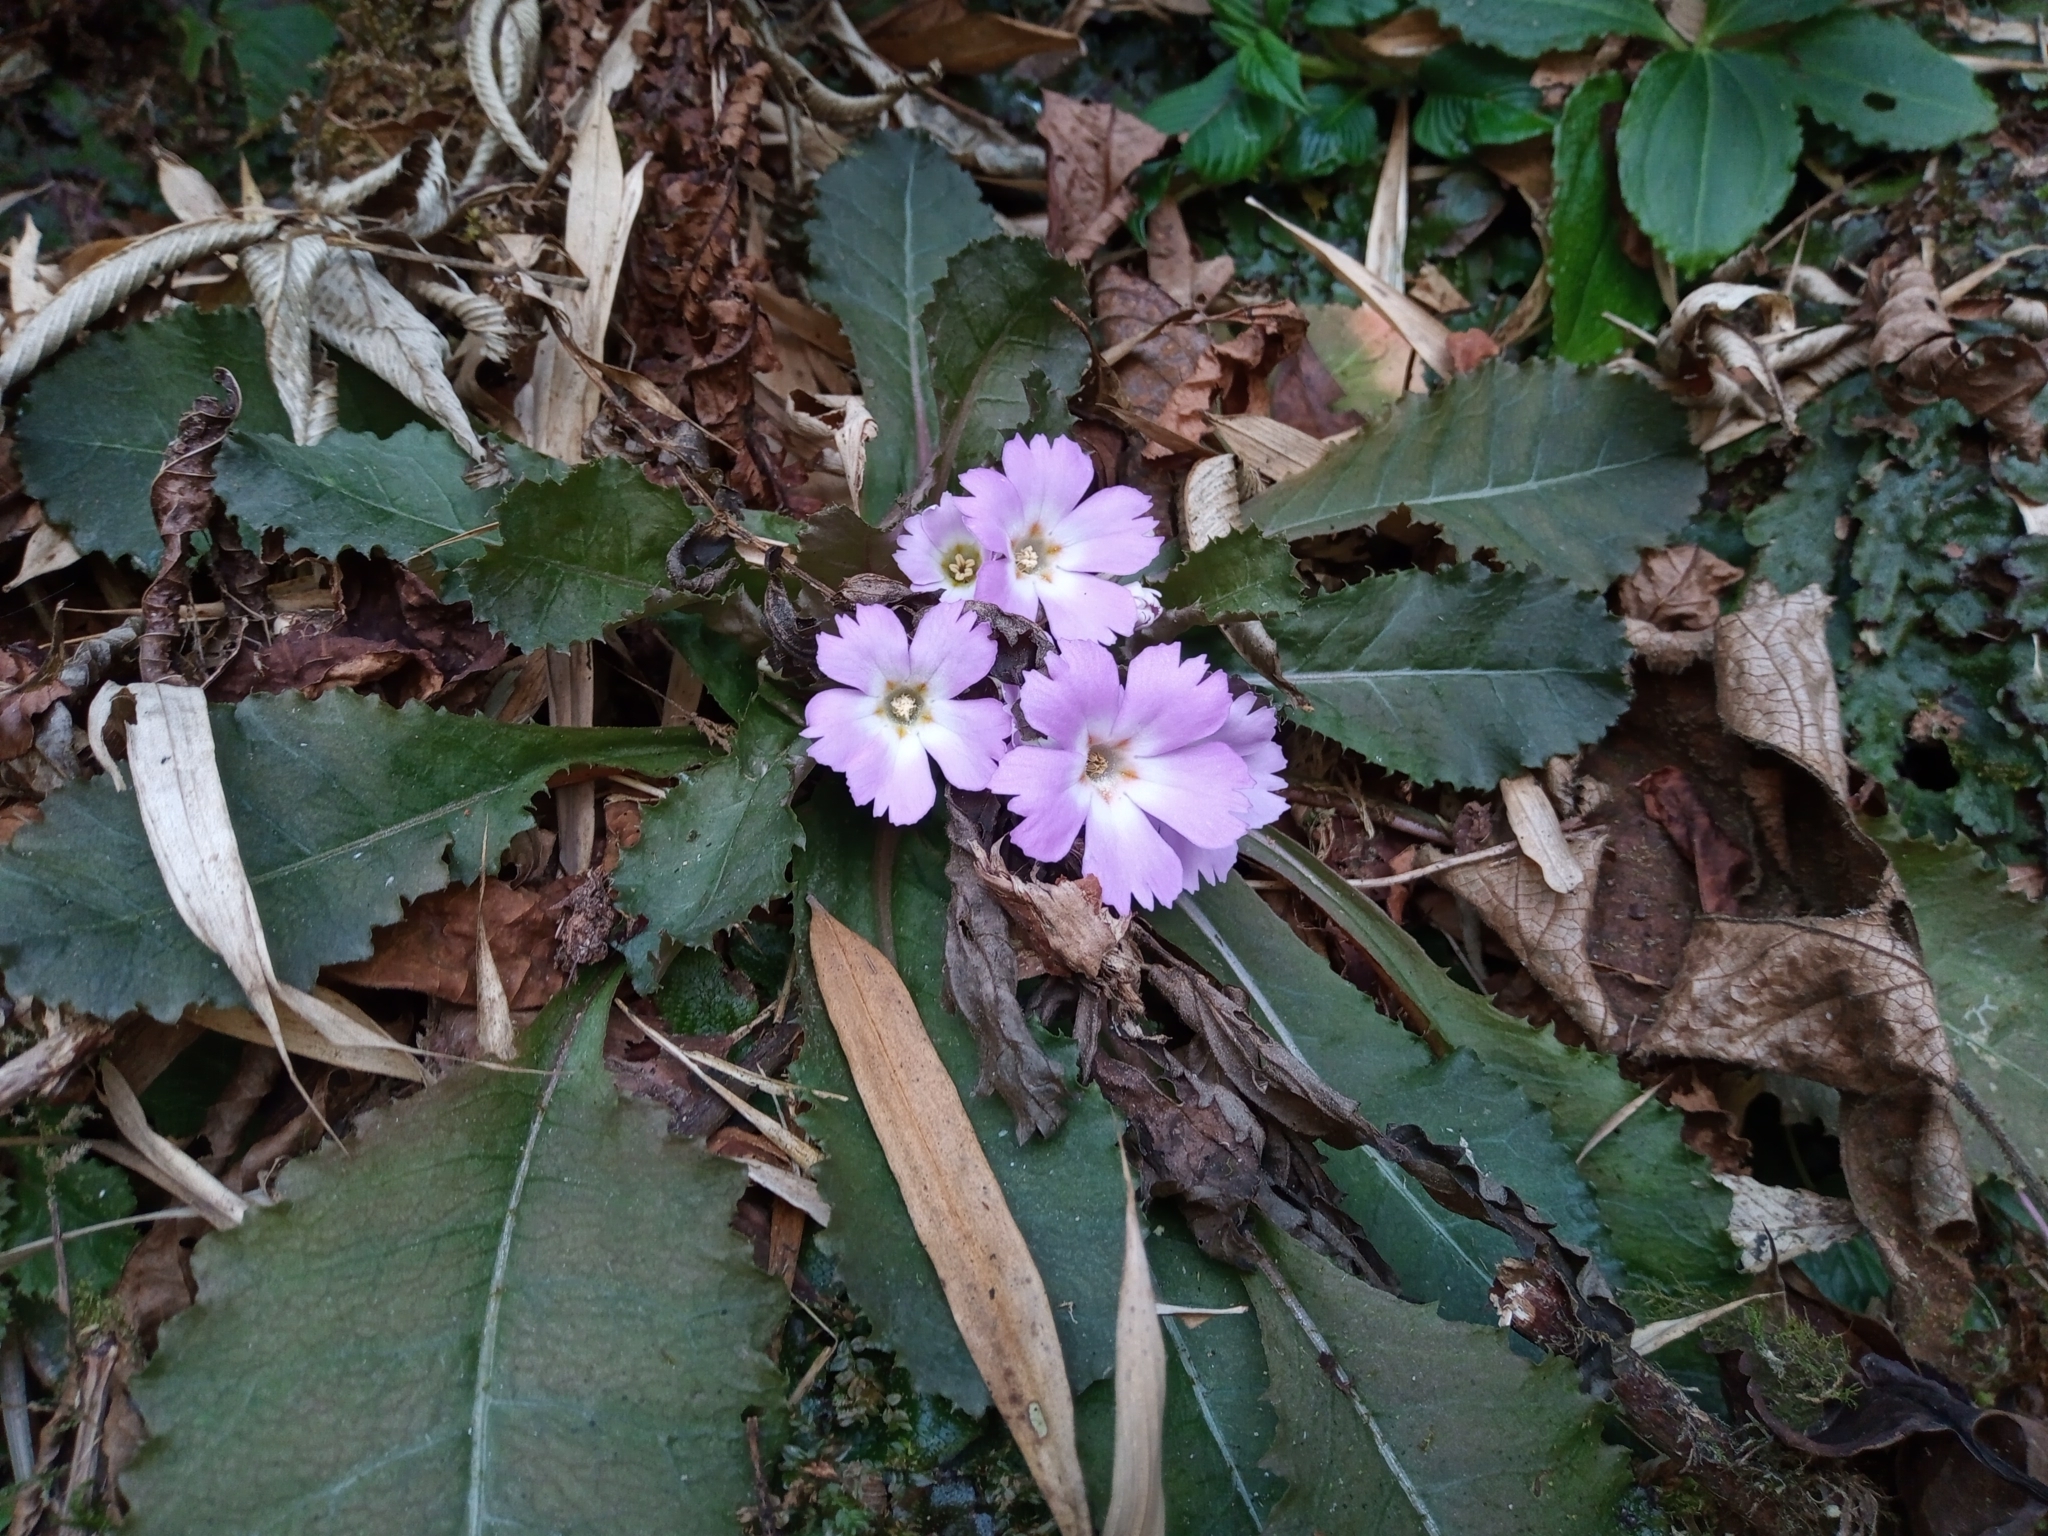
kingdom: Plantae
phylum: Tracheophyta
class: Magnoliopsida
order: Ericales
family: Primulaceae
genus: Primula
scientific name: Primula scapigera
